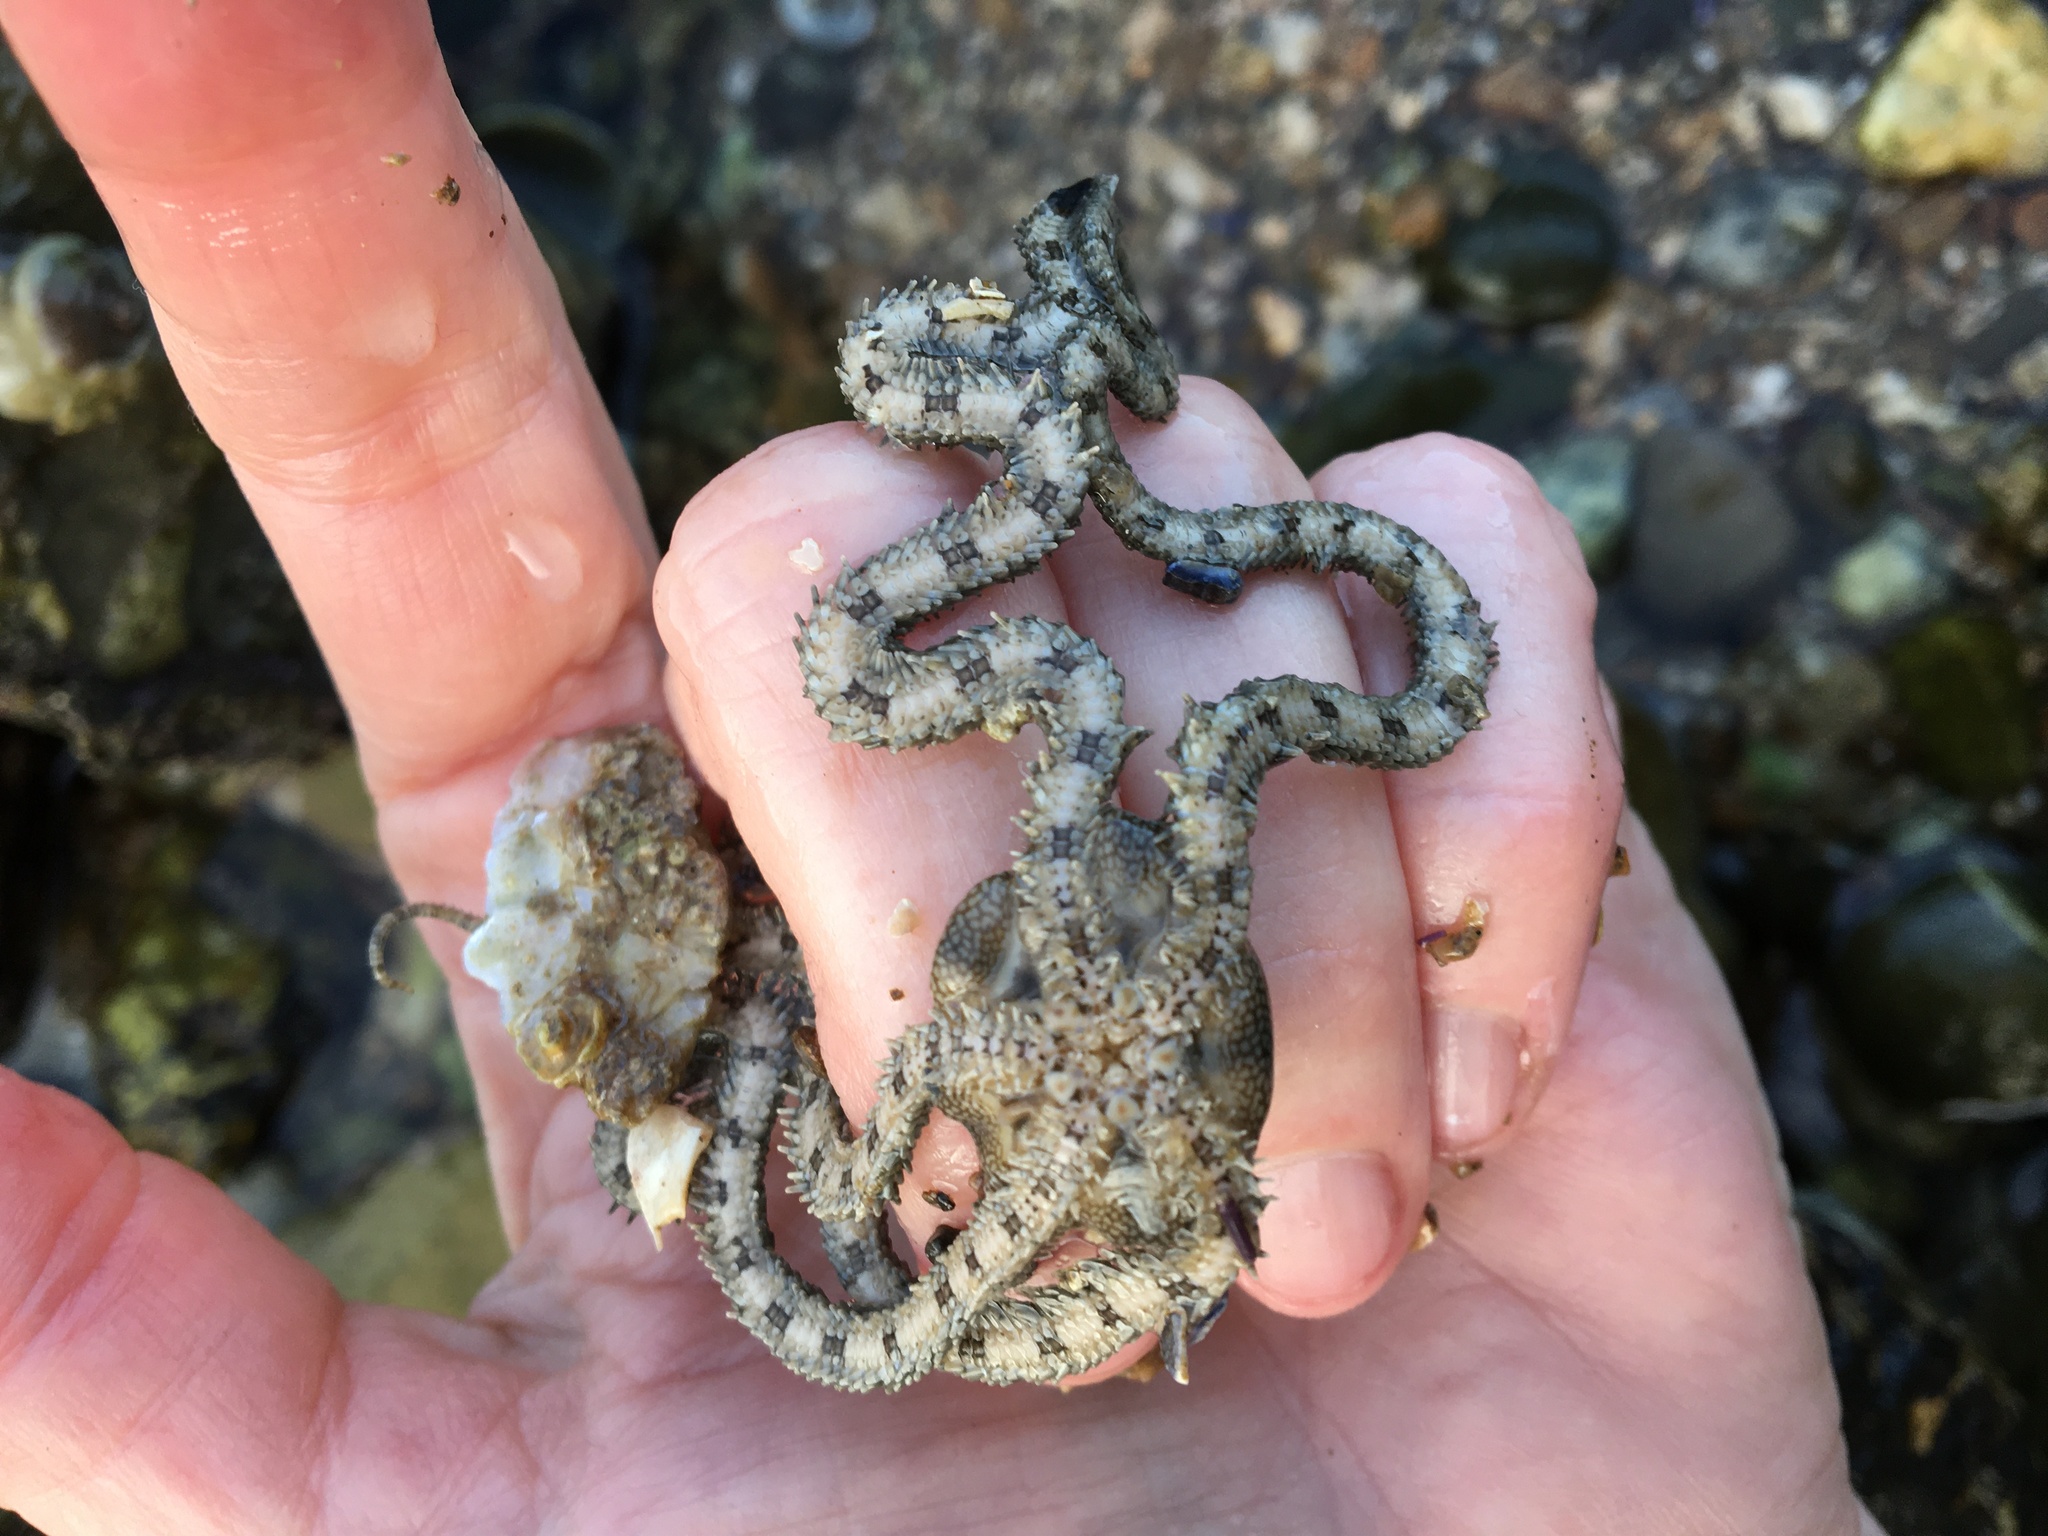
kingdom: Animalia
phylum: Echinodermata
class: Ophiuroidea
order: Amphilepidida
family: Ophionereididae
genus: Ophionereis
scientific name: Ophionereis annulata
